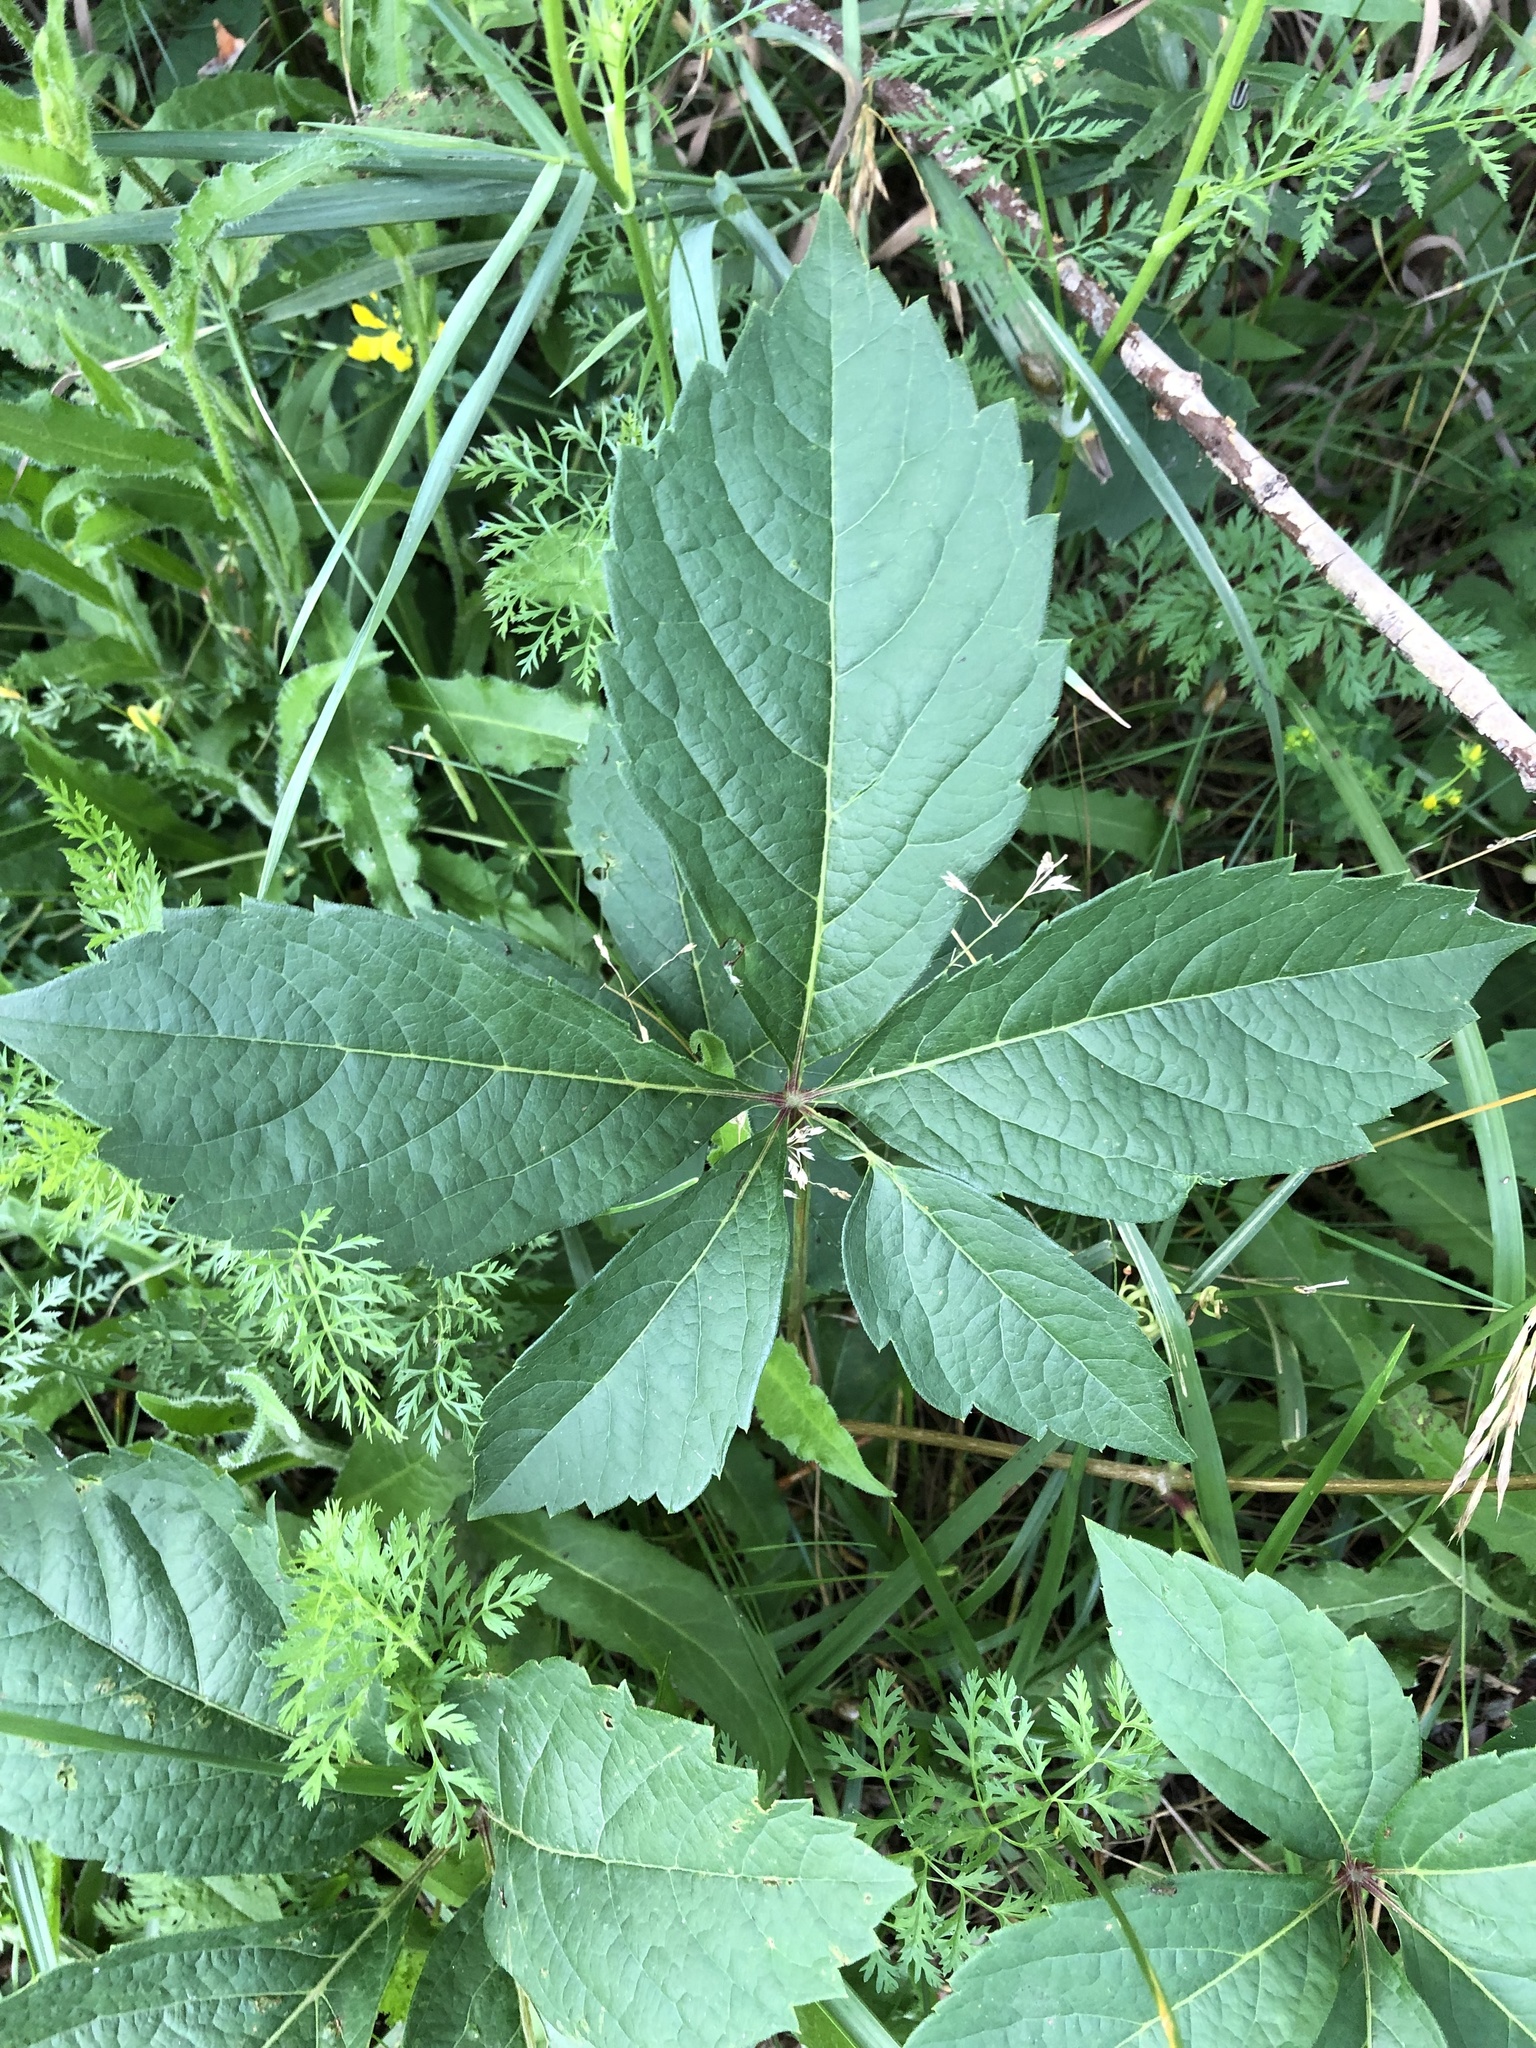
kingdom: Plantae
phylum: Tracheophyta
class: Magnoliopsida
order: Vitales
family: Vitaceae
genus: Parthenocissus
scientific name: Parthenocissus inserta
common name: False virginia-creeper
